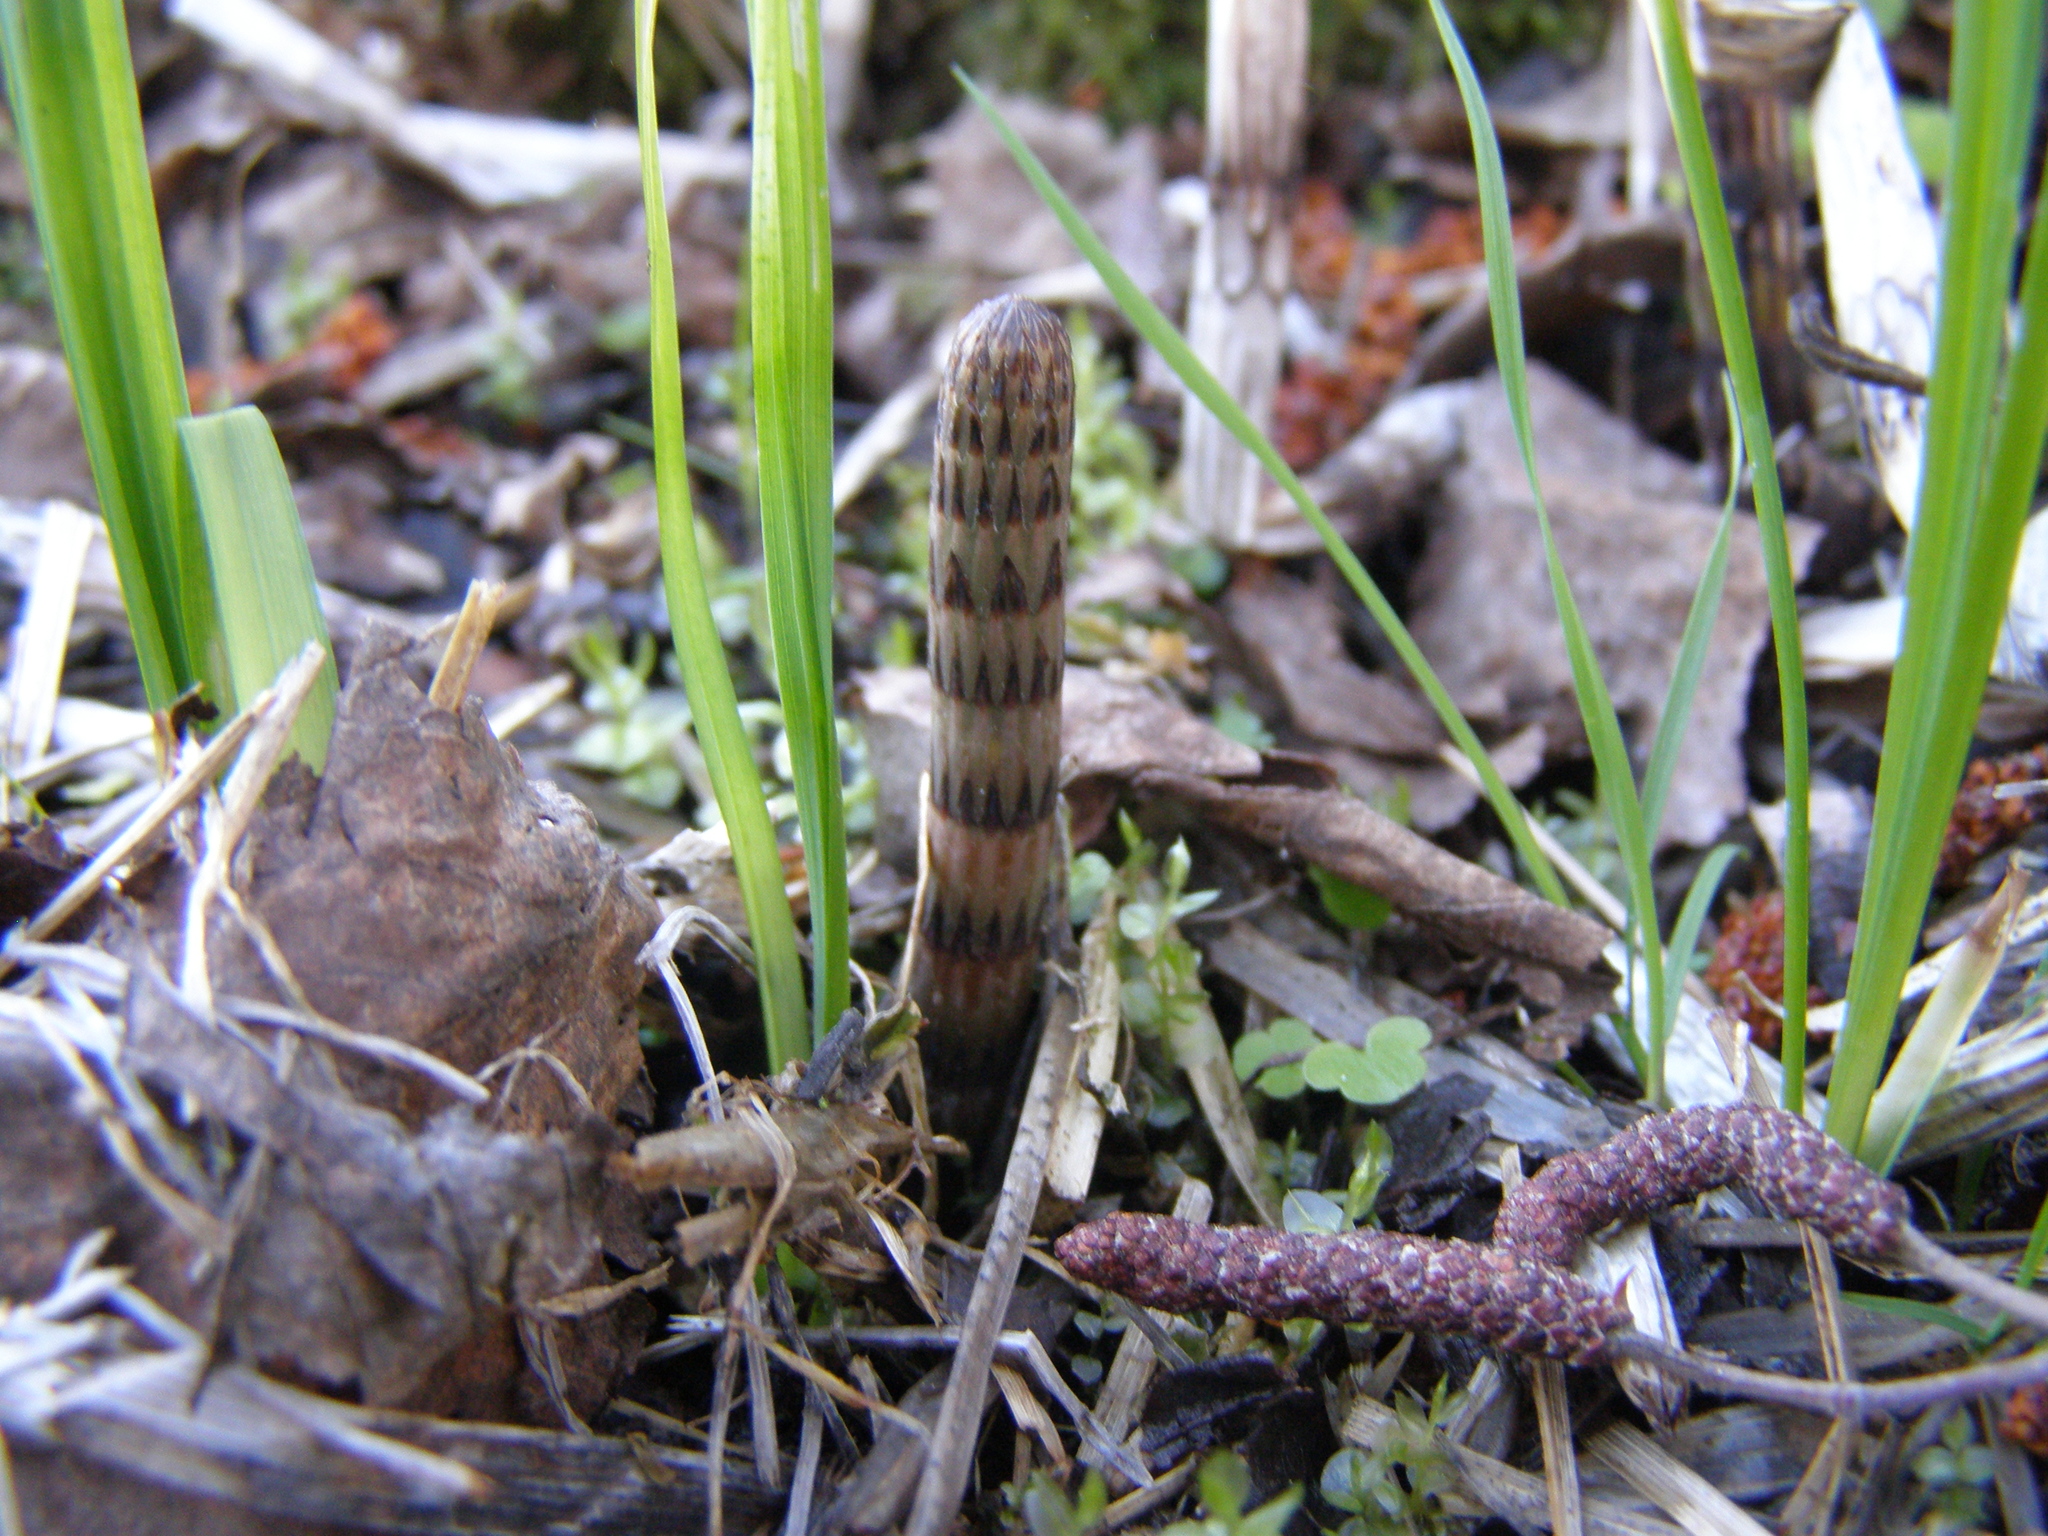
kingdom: Plantae
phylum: Tracheophyta
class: Polypodiopsida
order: Equisetales
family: Equisetaceae
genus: Equisetum
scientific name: Equisetum fluviatile
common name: Water horsetail
